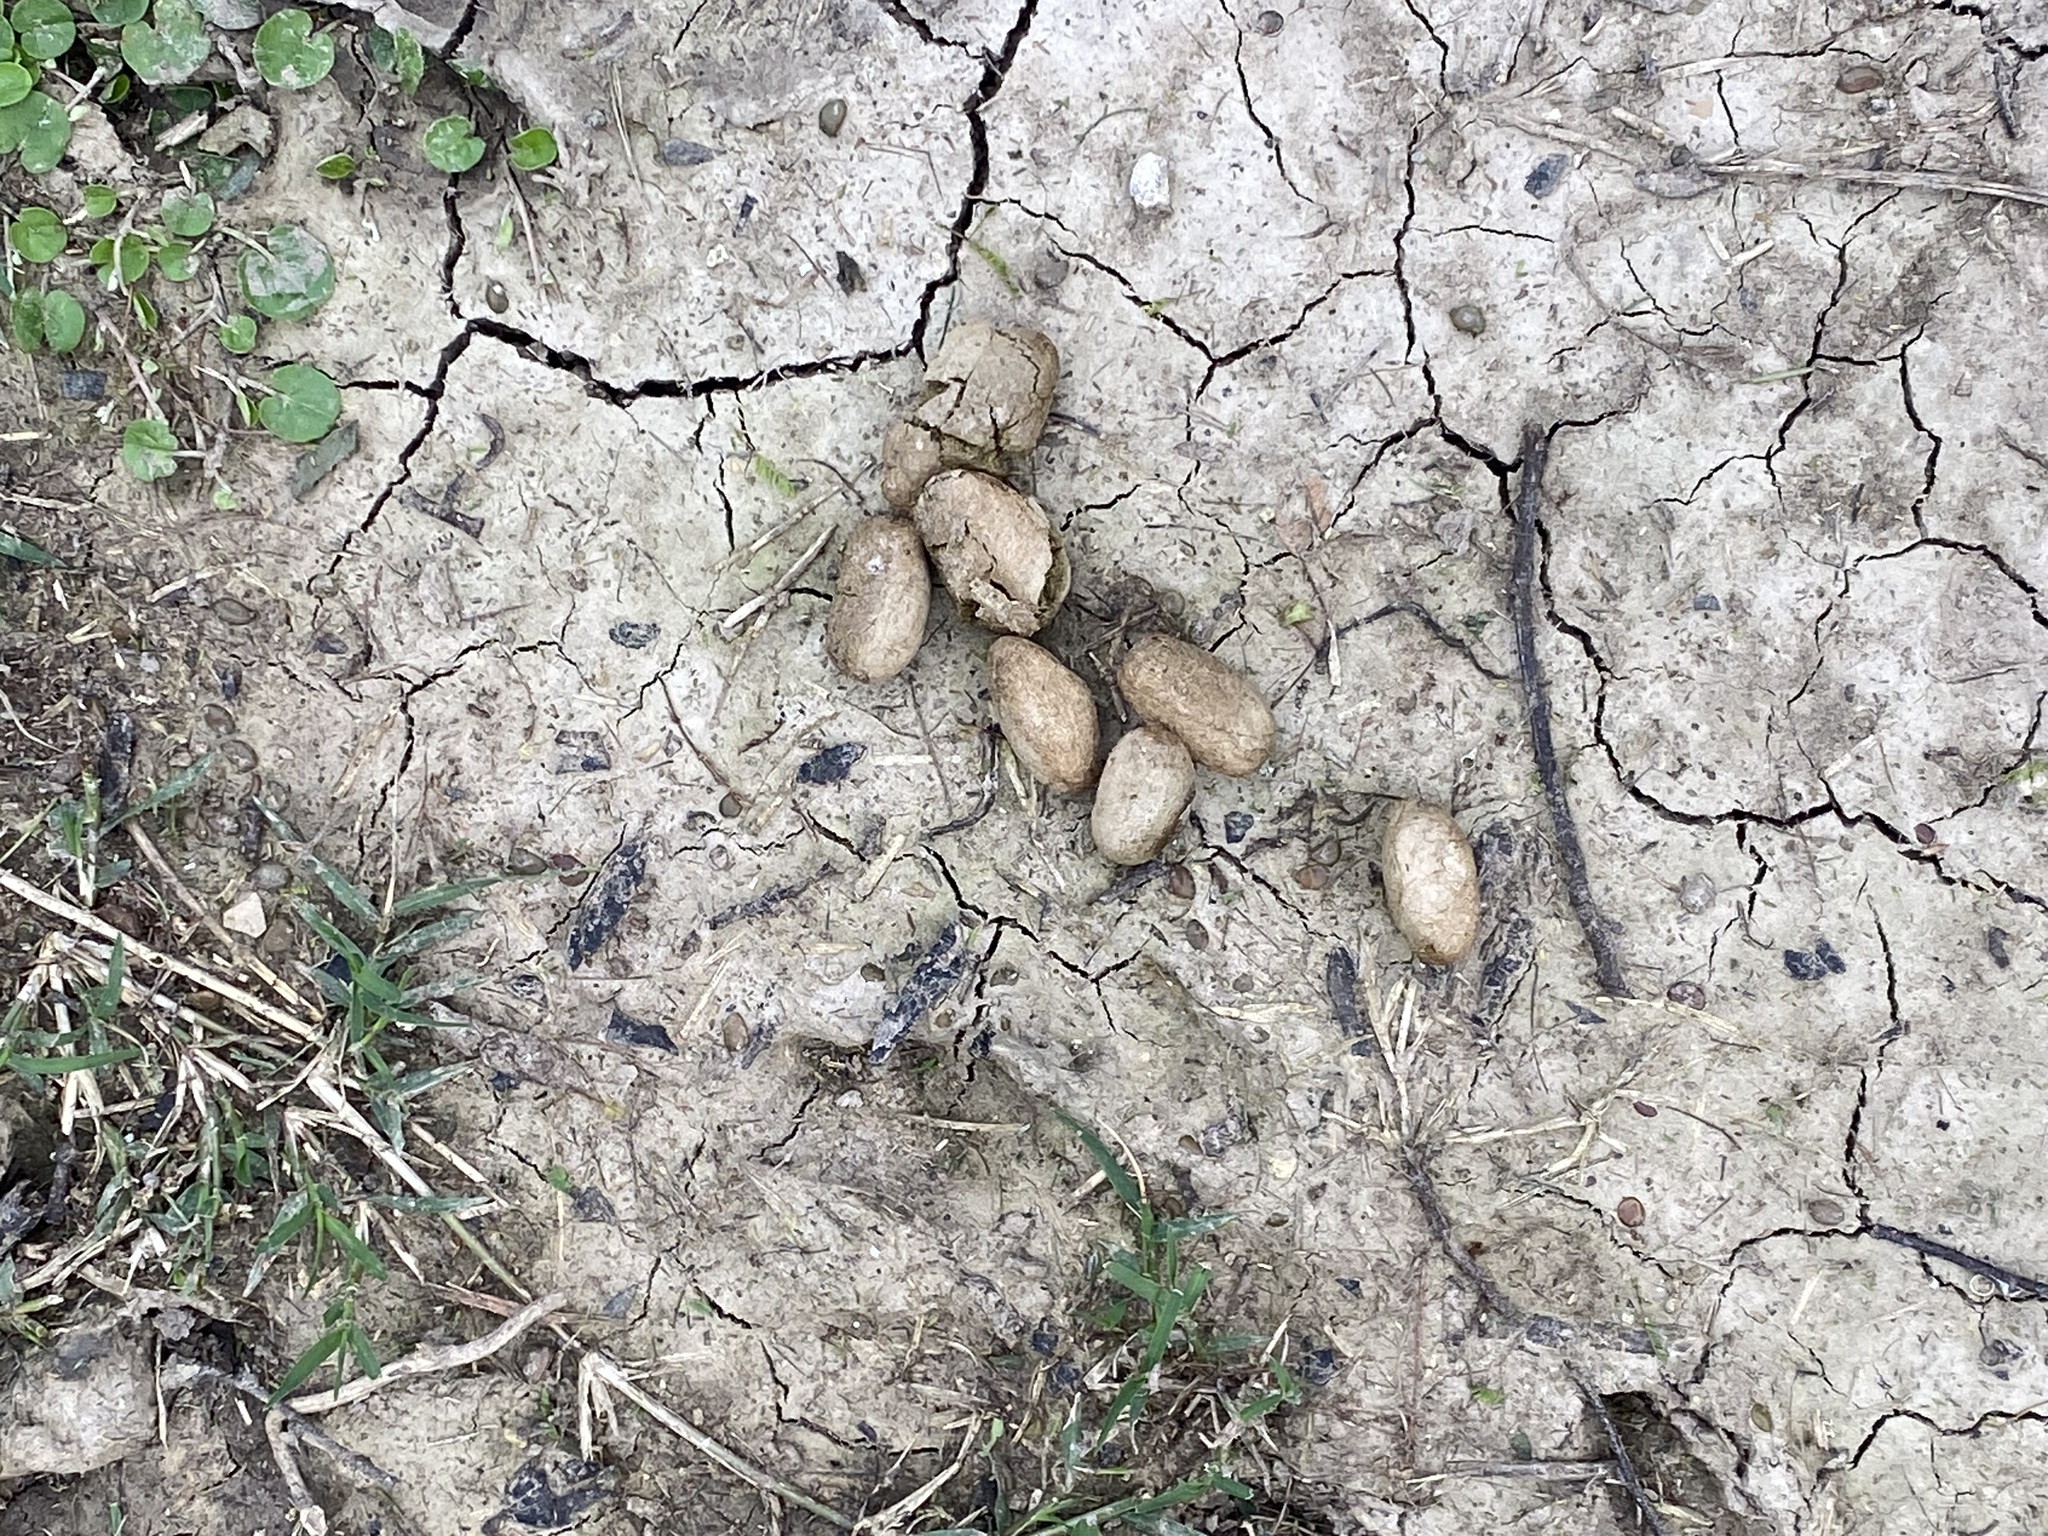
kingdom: Animalia
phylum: Chordata
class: Mammalia
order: Rodentia
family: Caviidae
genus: Hydrochoerus
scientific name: Hydrochoerus hydrochaeris
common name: Capybara
